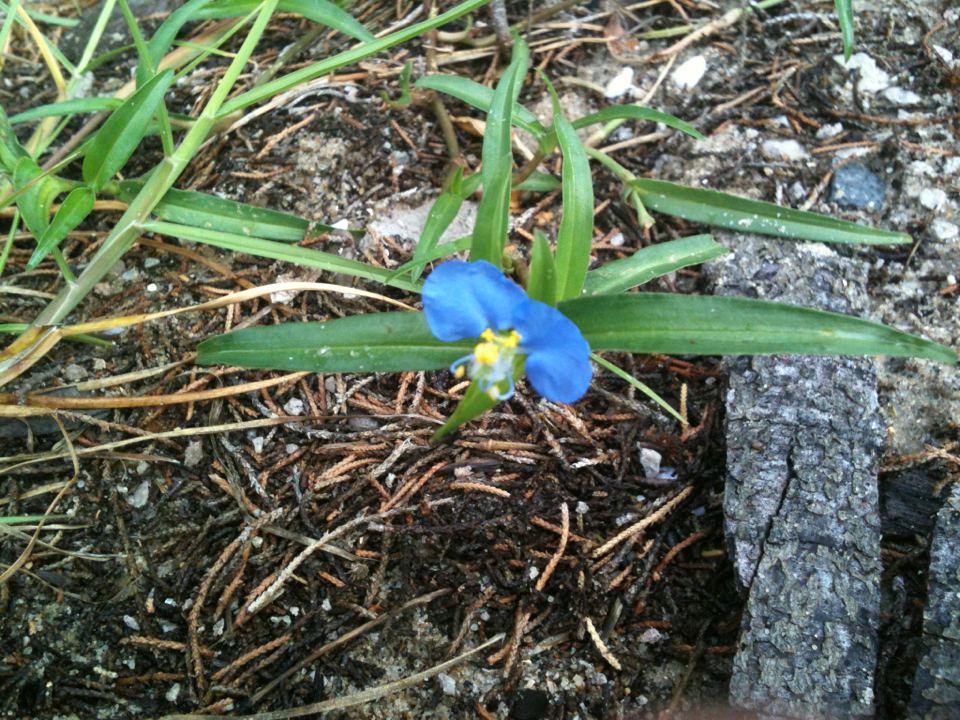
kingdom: Plantae
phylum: Tracheophyta
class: Liliopsida
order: Commelinales
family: Commelinaceae
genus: Commelina
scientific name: Commelina erecta
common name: Blousel blommetjie
